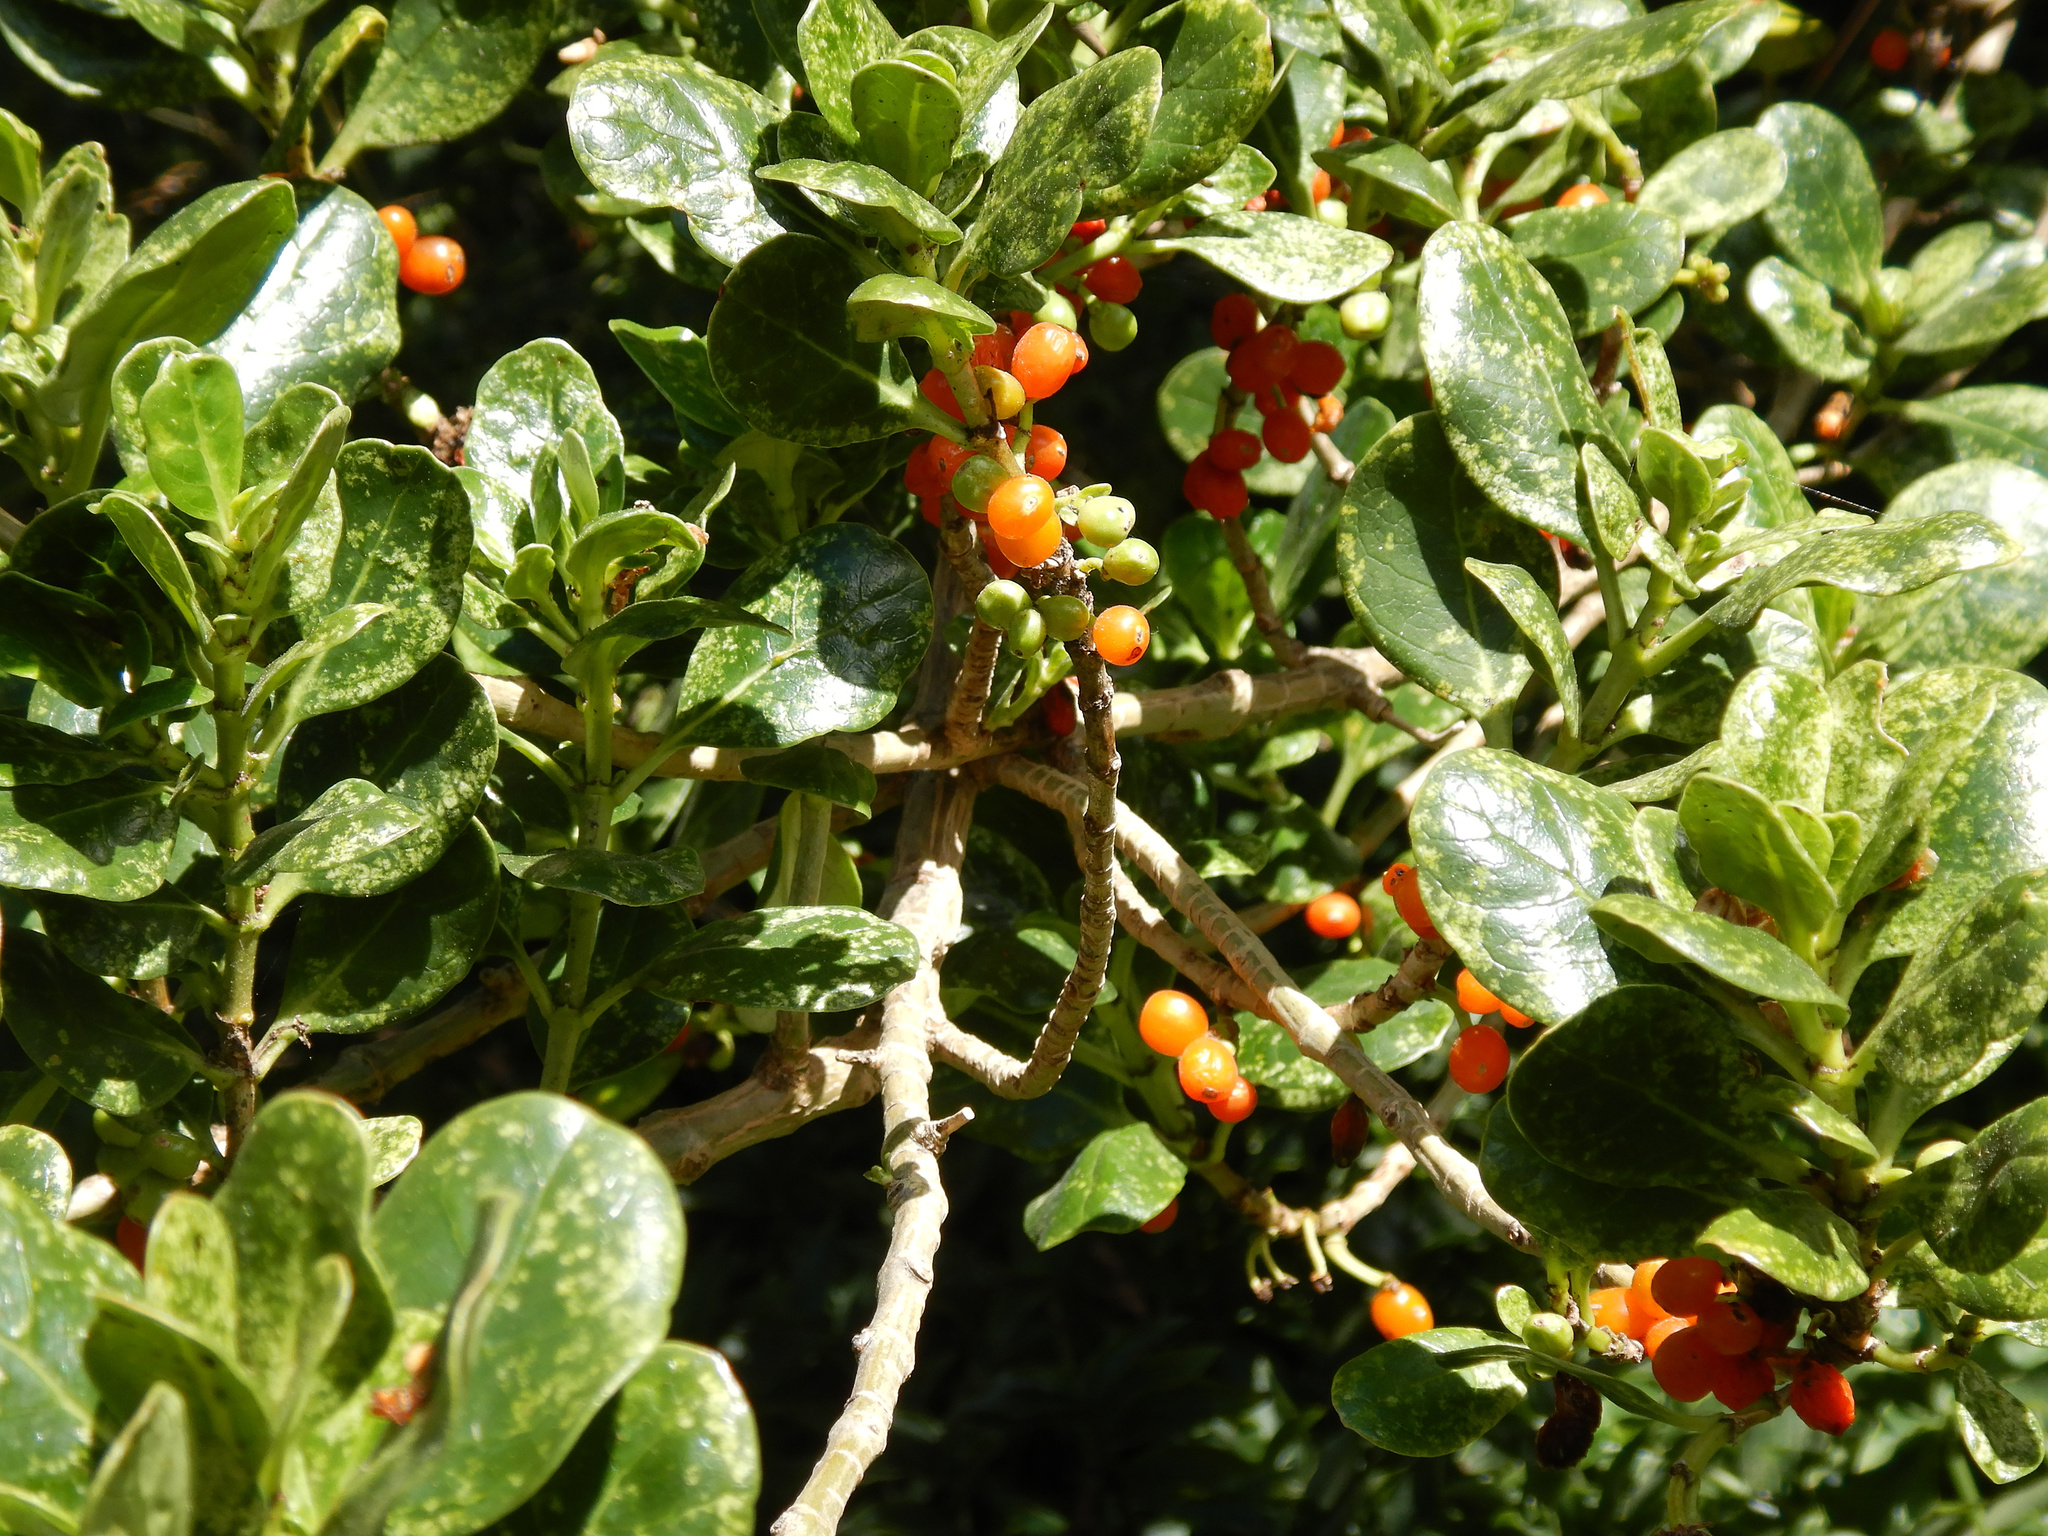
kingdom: Plantae
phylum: Tracheophyta
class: Magnoliopsida
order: Gentianales
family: Rubiaceae
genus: Coprosma
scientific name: Coprosma repens
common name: Tree bedstraw
